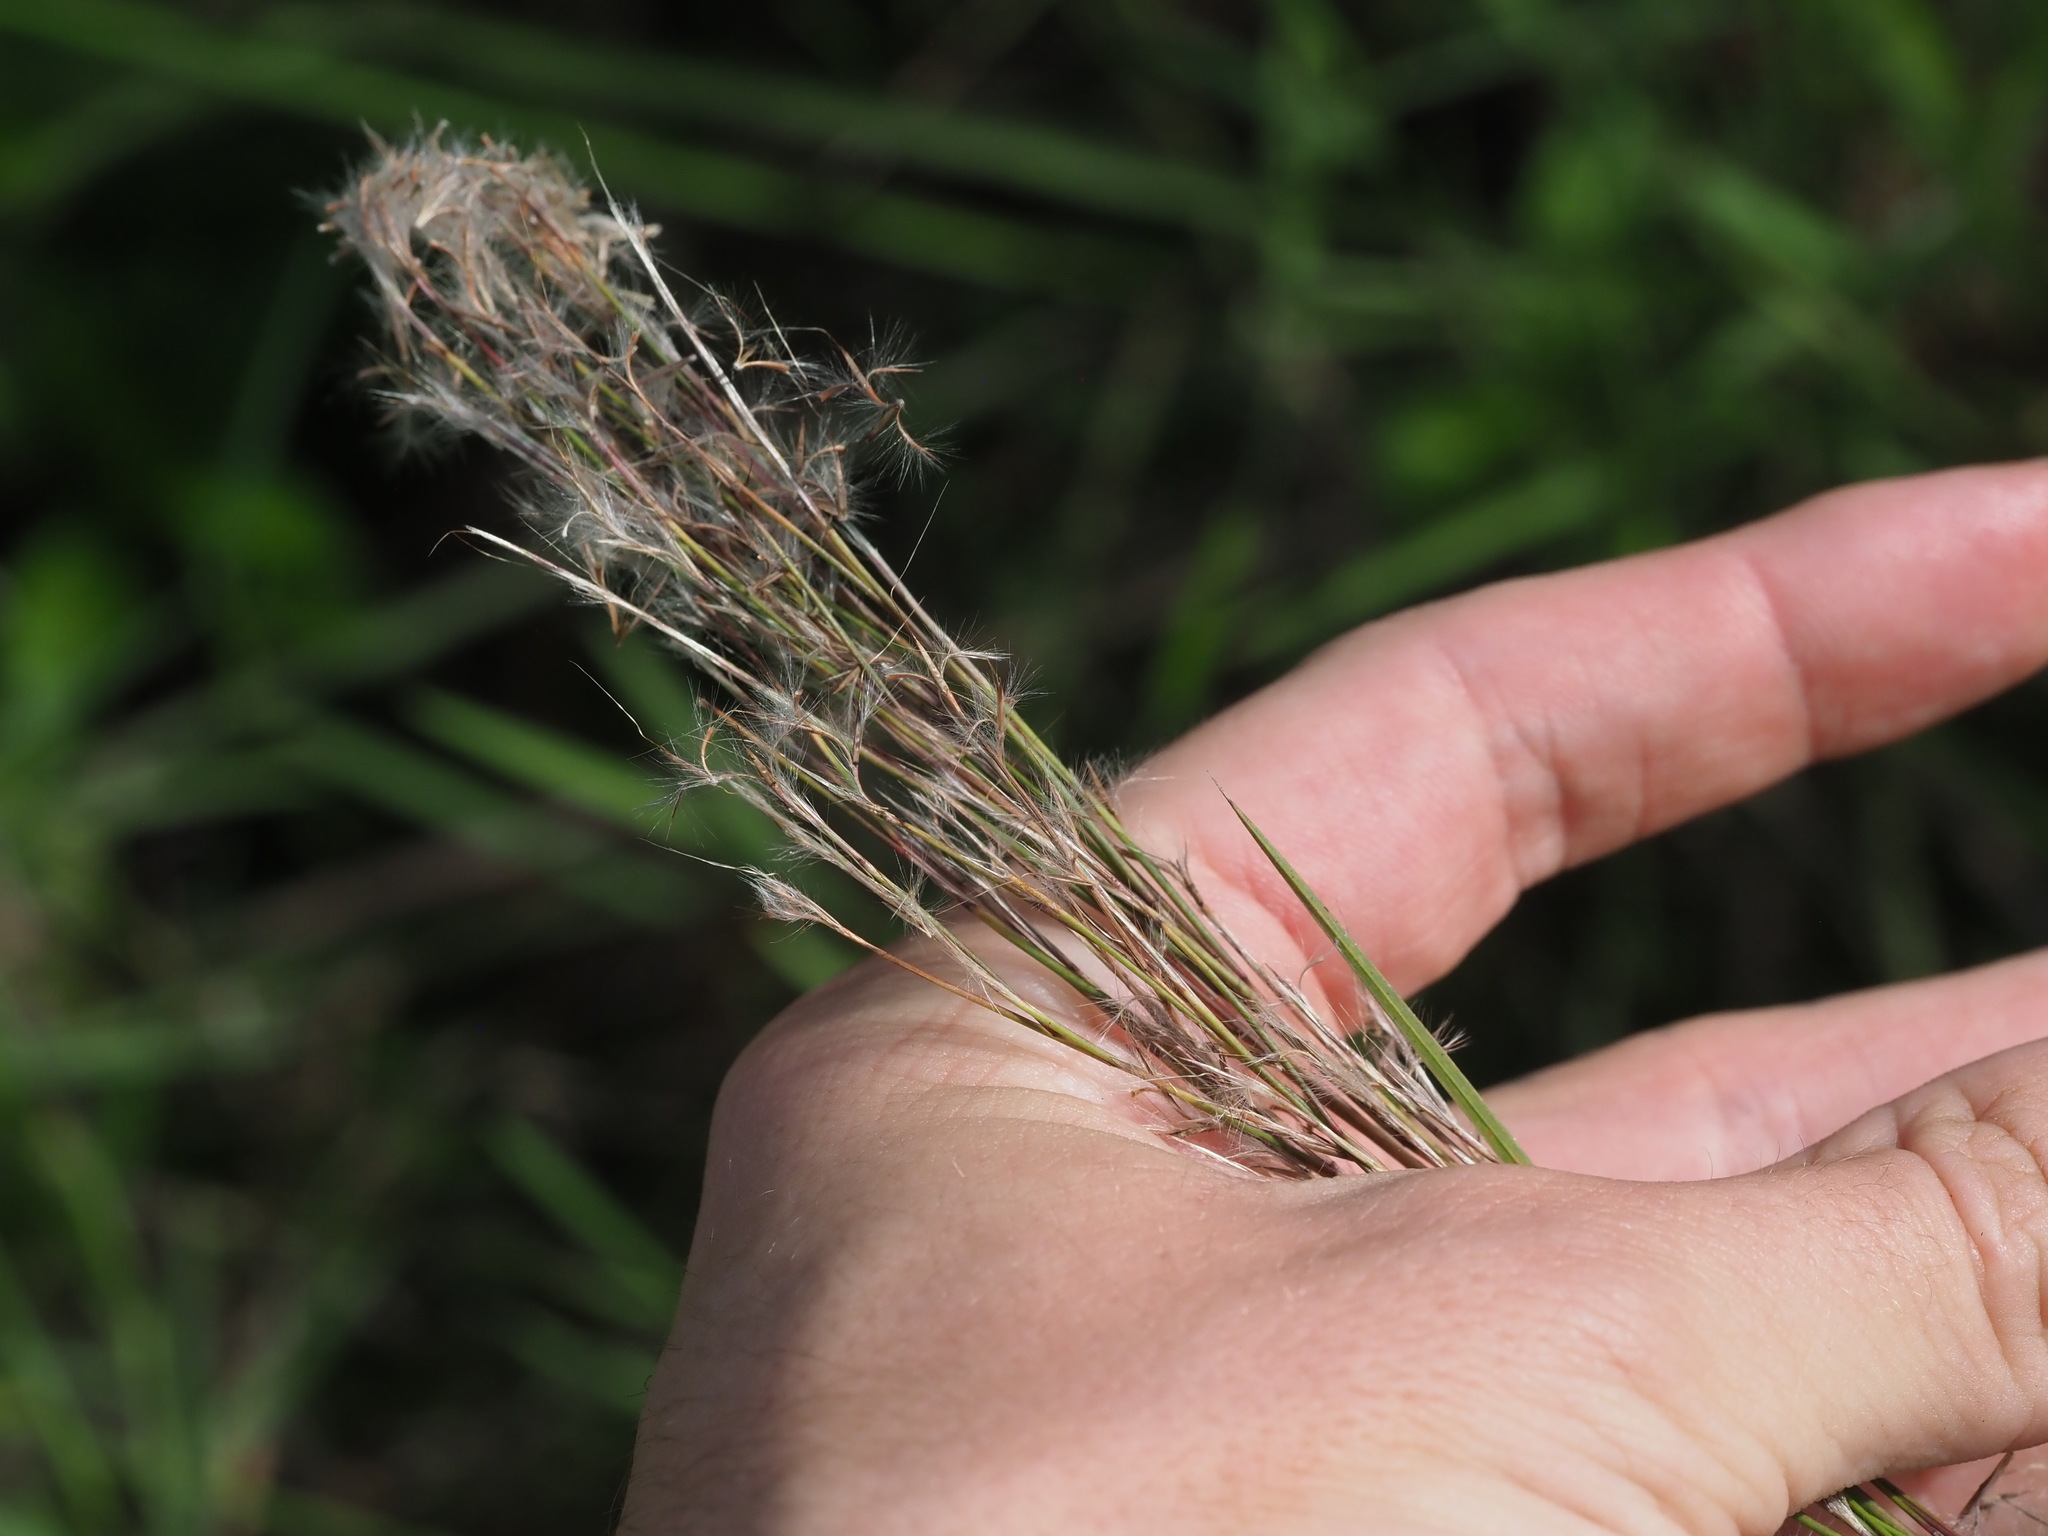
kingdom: Plantae
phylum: Tracheophyta
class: Liliopsida
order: Poales
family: Poaceae
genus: Schizachyrium
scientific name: Schizachyrium microstachyum
